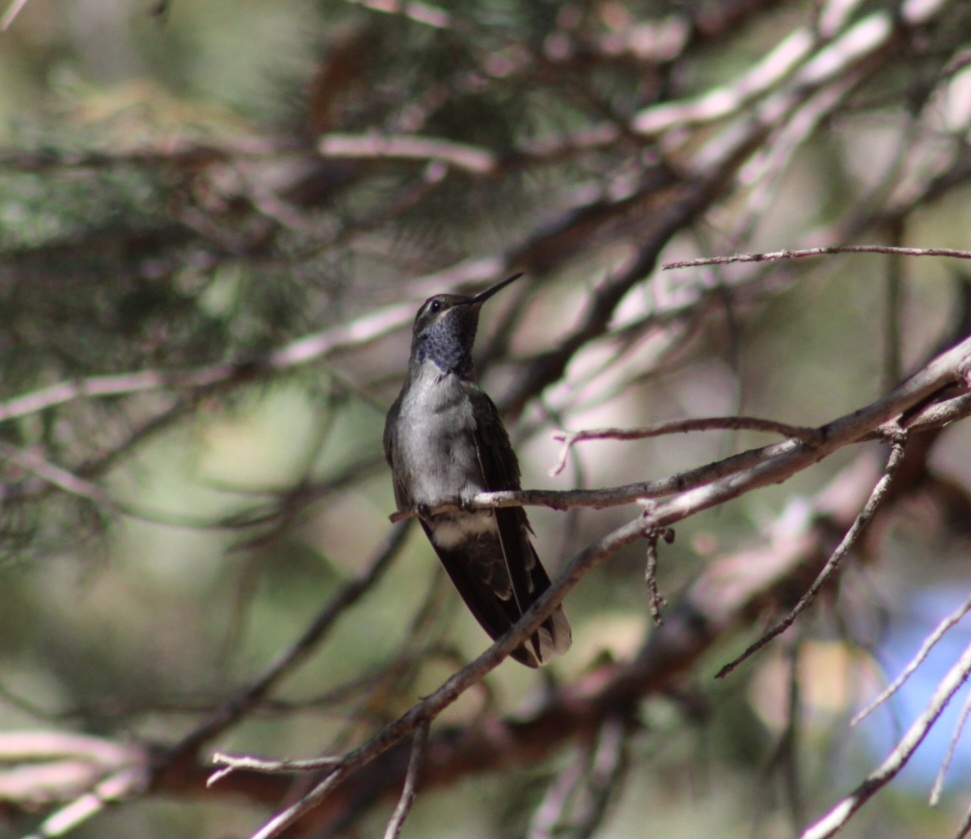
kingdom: Animalia
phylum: Chordata
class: Aves
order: Apodiformes
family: Trochilidae
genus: Lampornis
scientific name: Lampornis clemenciae
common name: Blue-throated mountaingem
